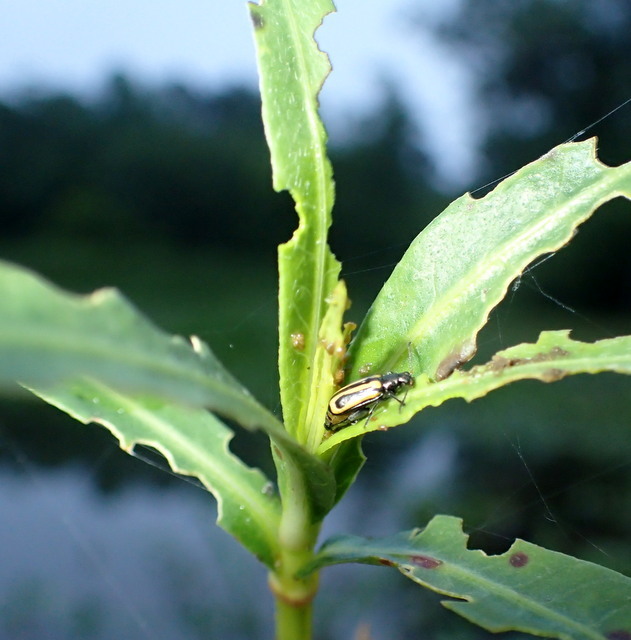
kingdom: Animalia
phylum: Arthropoda
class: Insecta
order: Coleoptera
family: Chrysomelidae
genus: Agasicles
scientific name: Agasicles hygrophila
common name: Alligatorweed flea beetle
